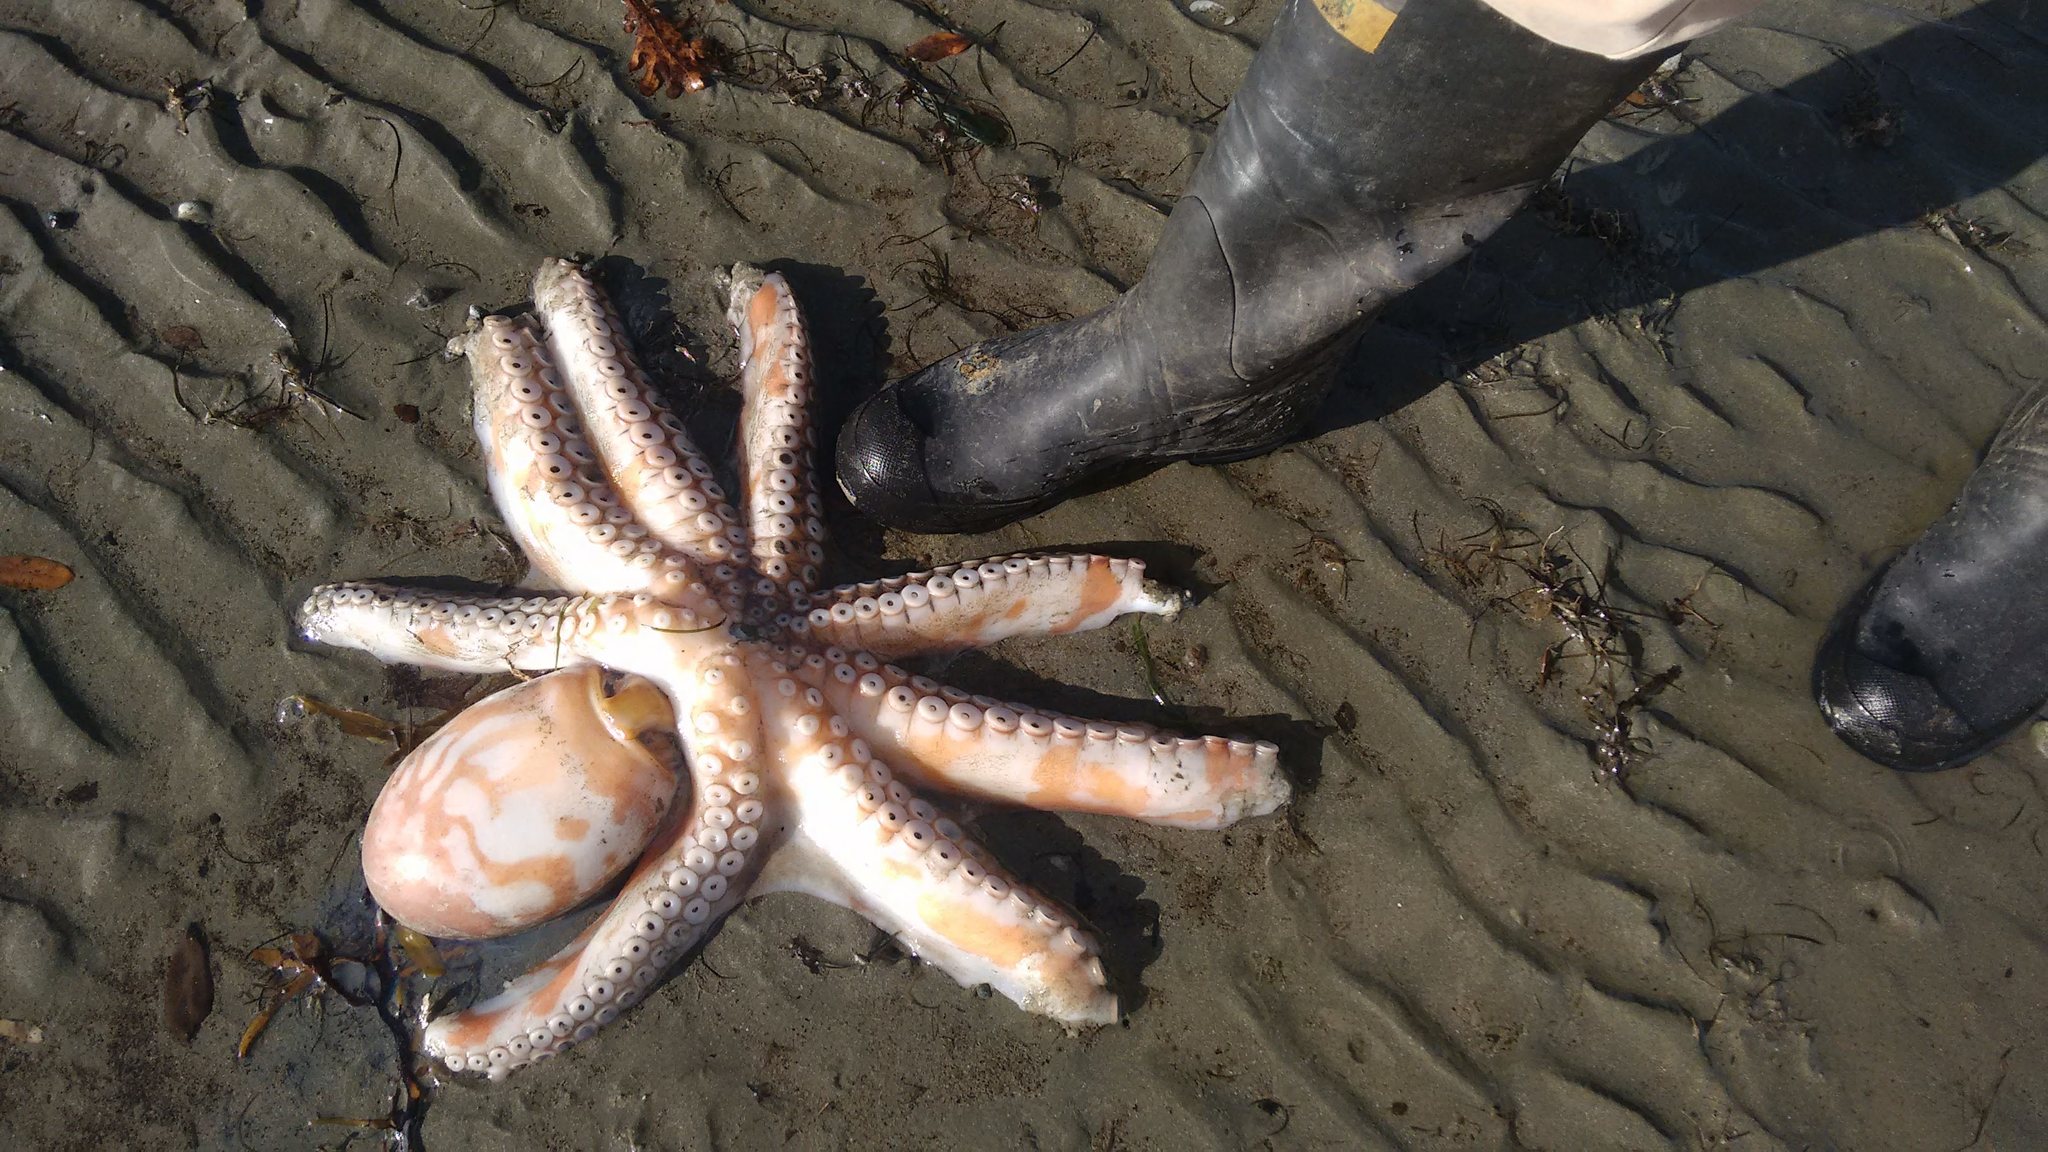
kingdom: Animalia
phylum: Mollusca
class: Cephalopoda
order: Octopoda
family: Octopodidae
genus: Octopus
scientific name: Octopus tetricus
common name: Sydney octopus
